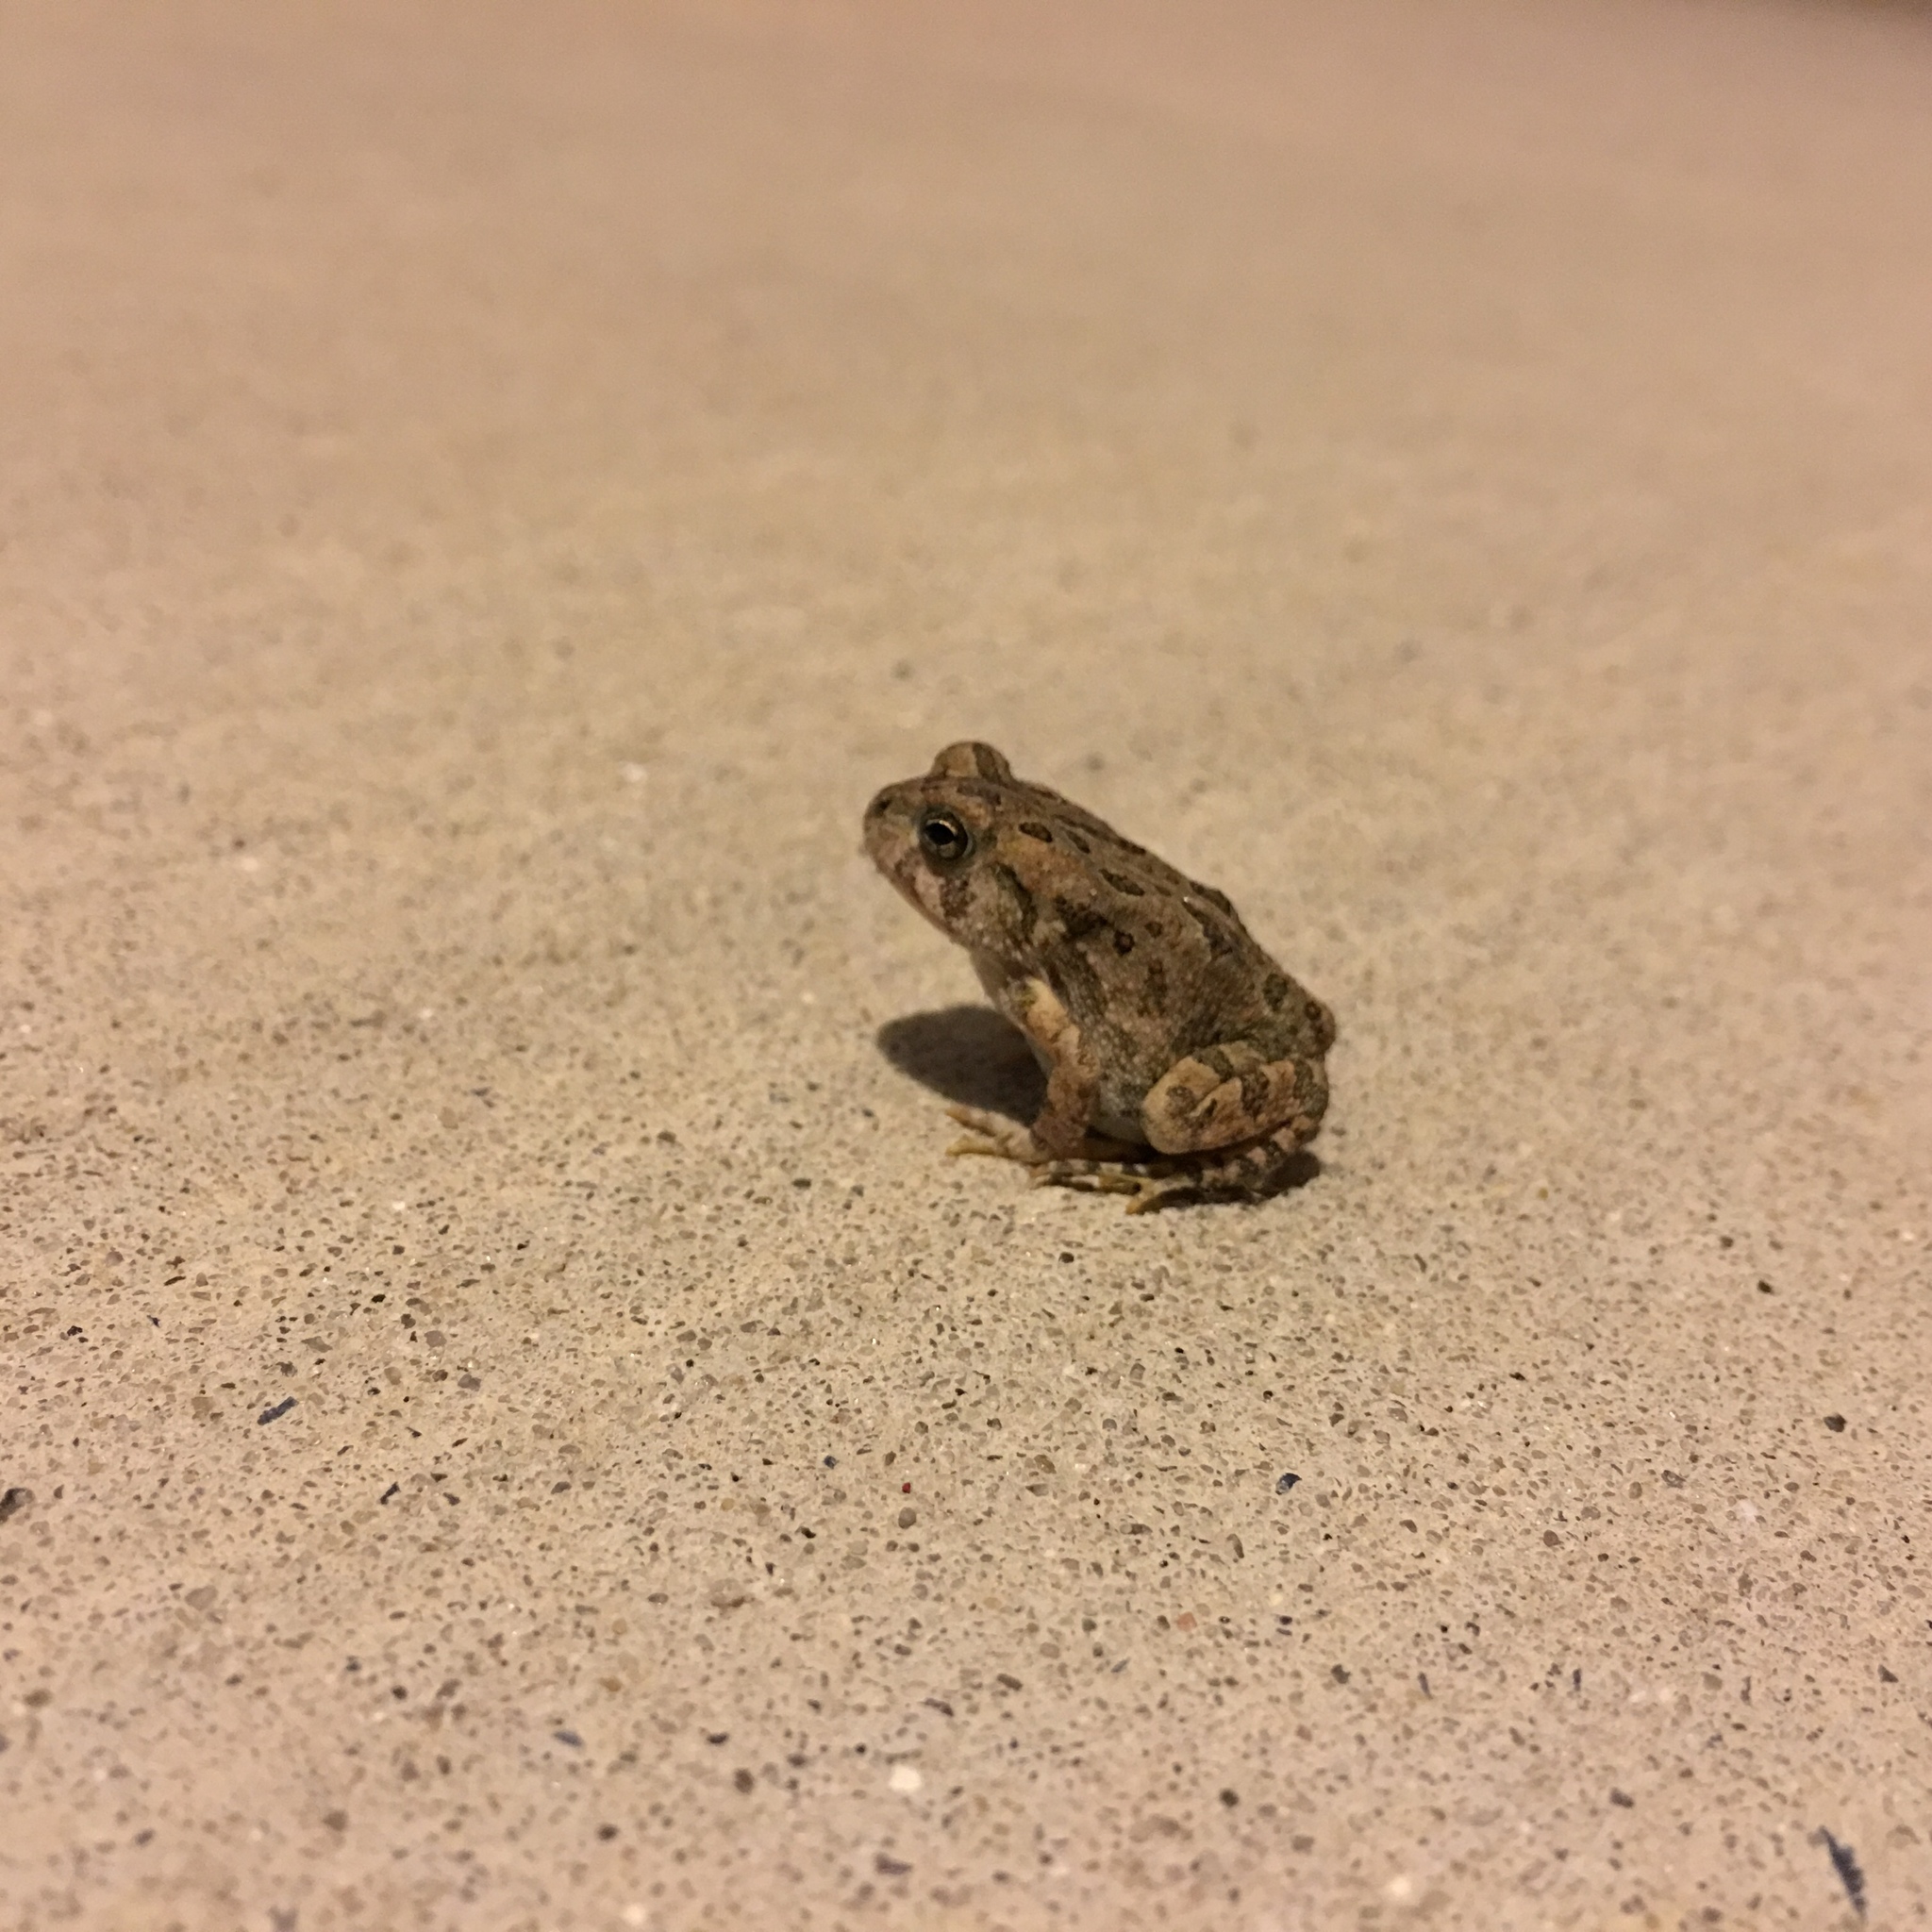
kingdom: Animalia
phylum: Chordata
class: Amphibia
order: Anura
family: Bufonidae
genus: Anaxyrus
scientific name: Anaxyrus fowleri
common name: Fowler's toad
